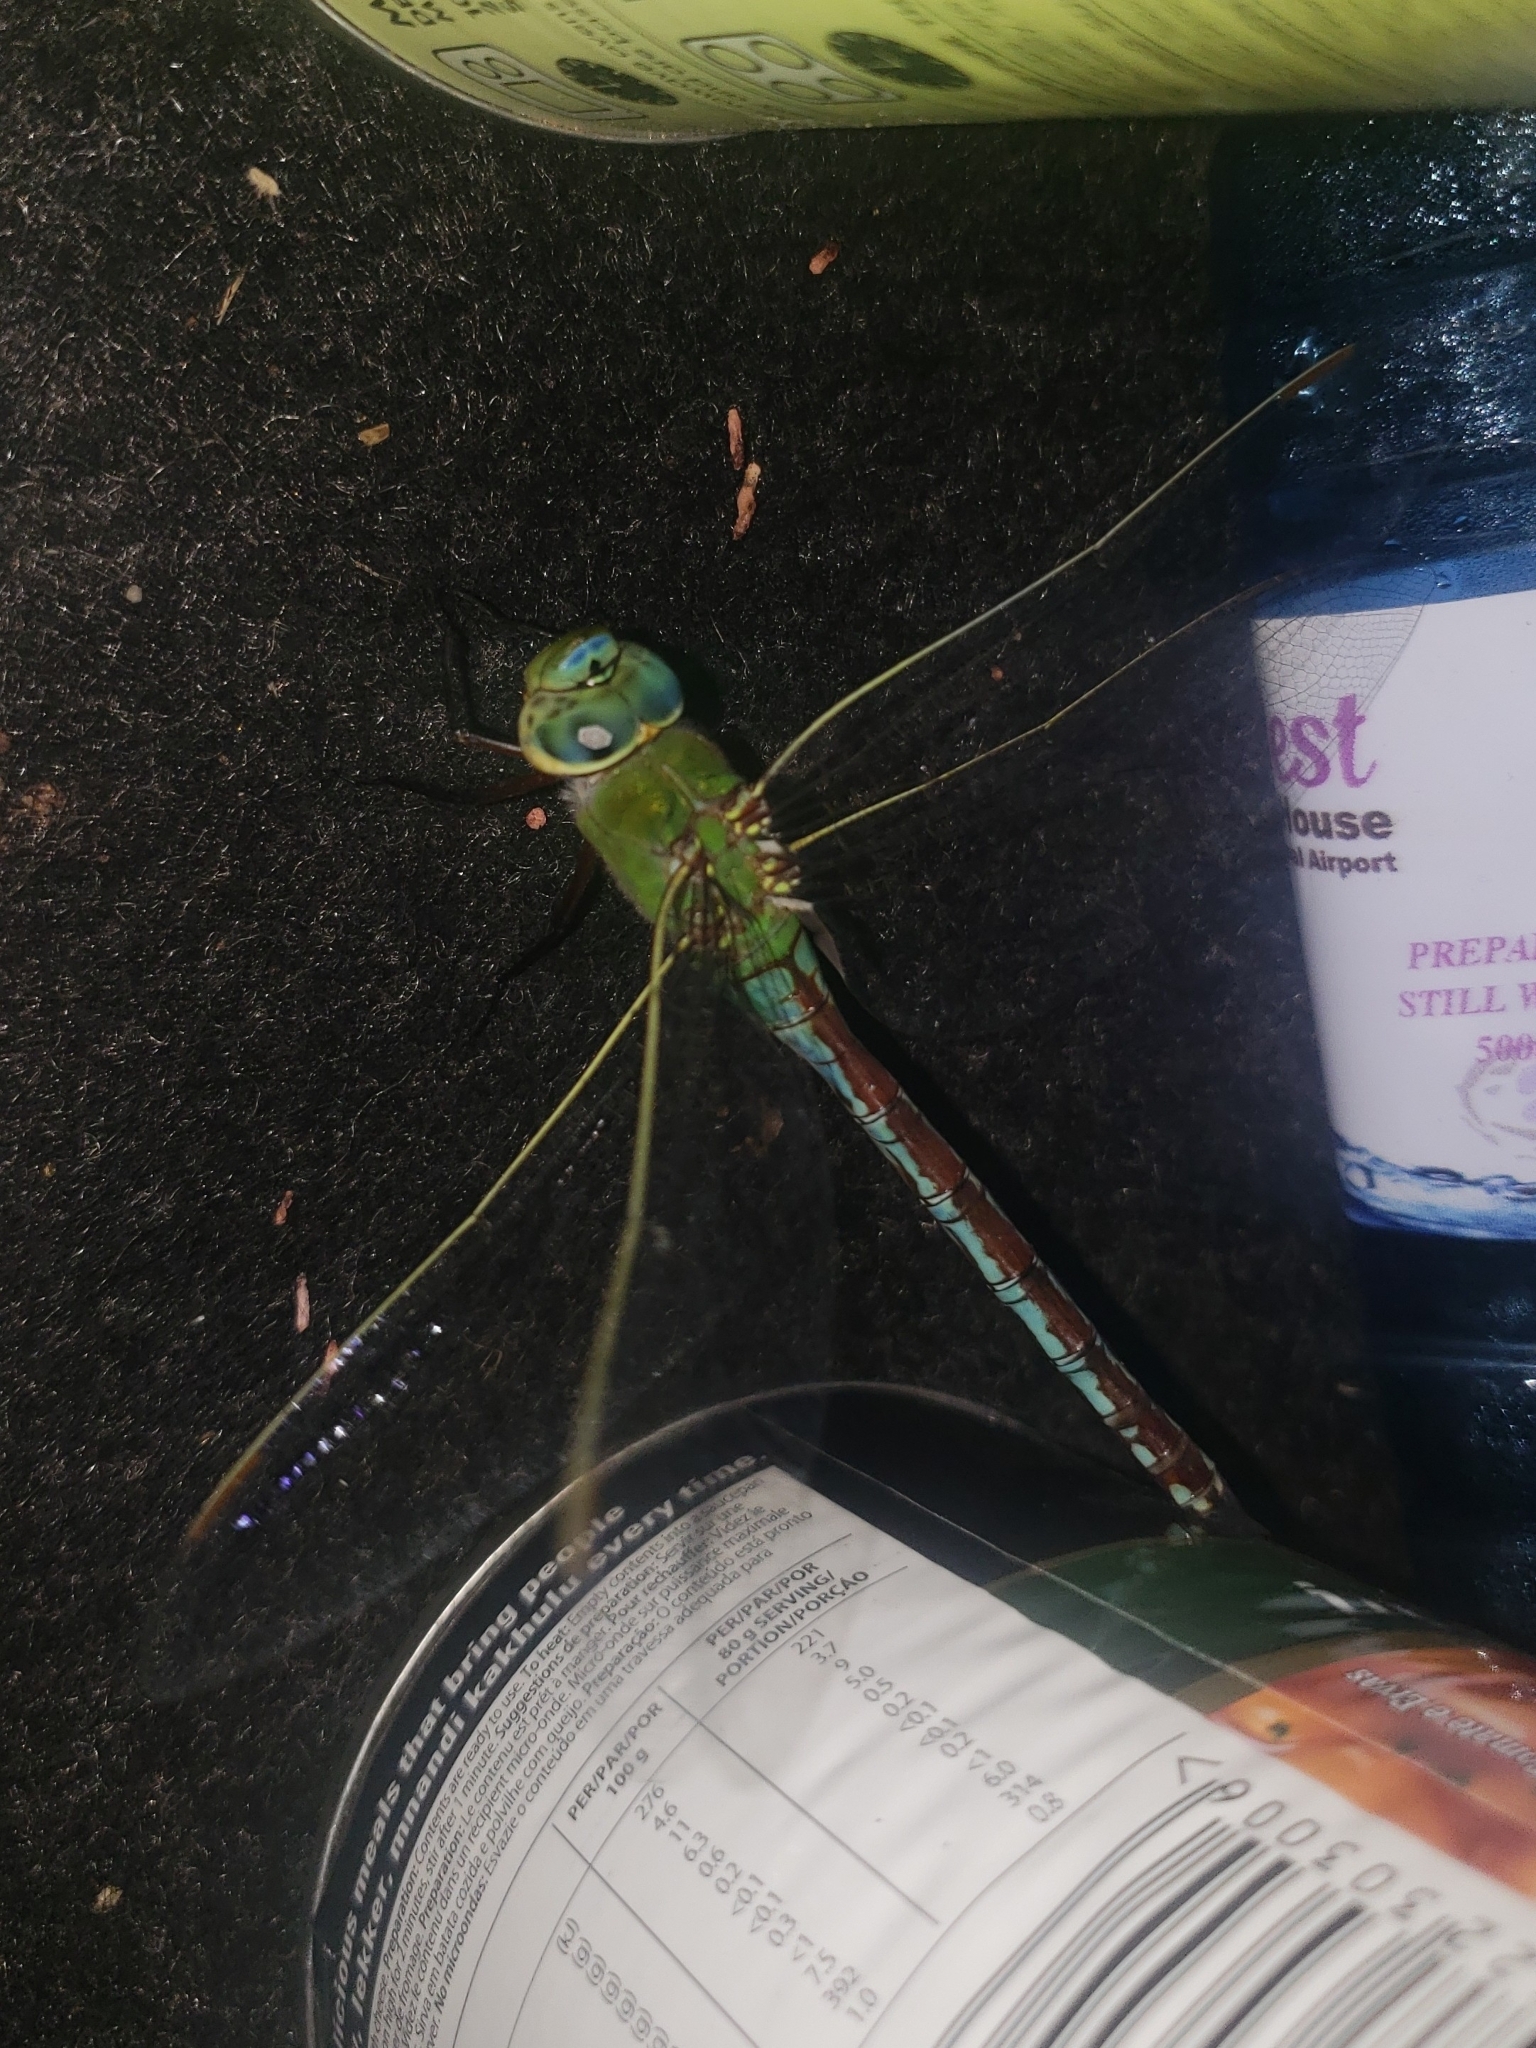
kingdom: Animalia
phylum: Arthropoda
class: Insecta
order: Odonata
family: Aeshnidae
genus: Anax
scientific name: Anax imperator
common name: Emperor dragonfly
